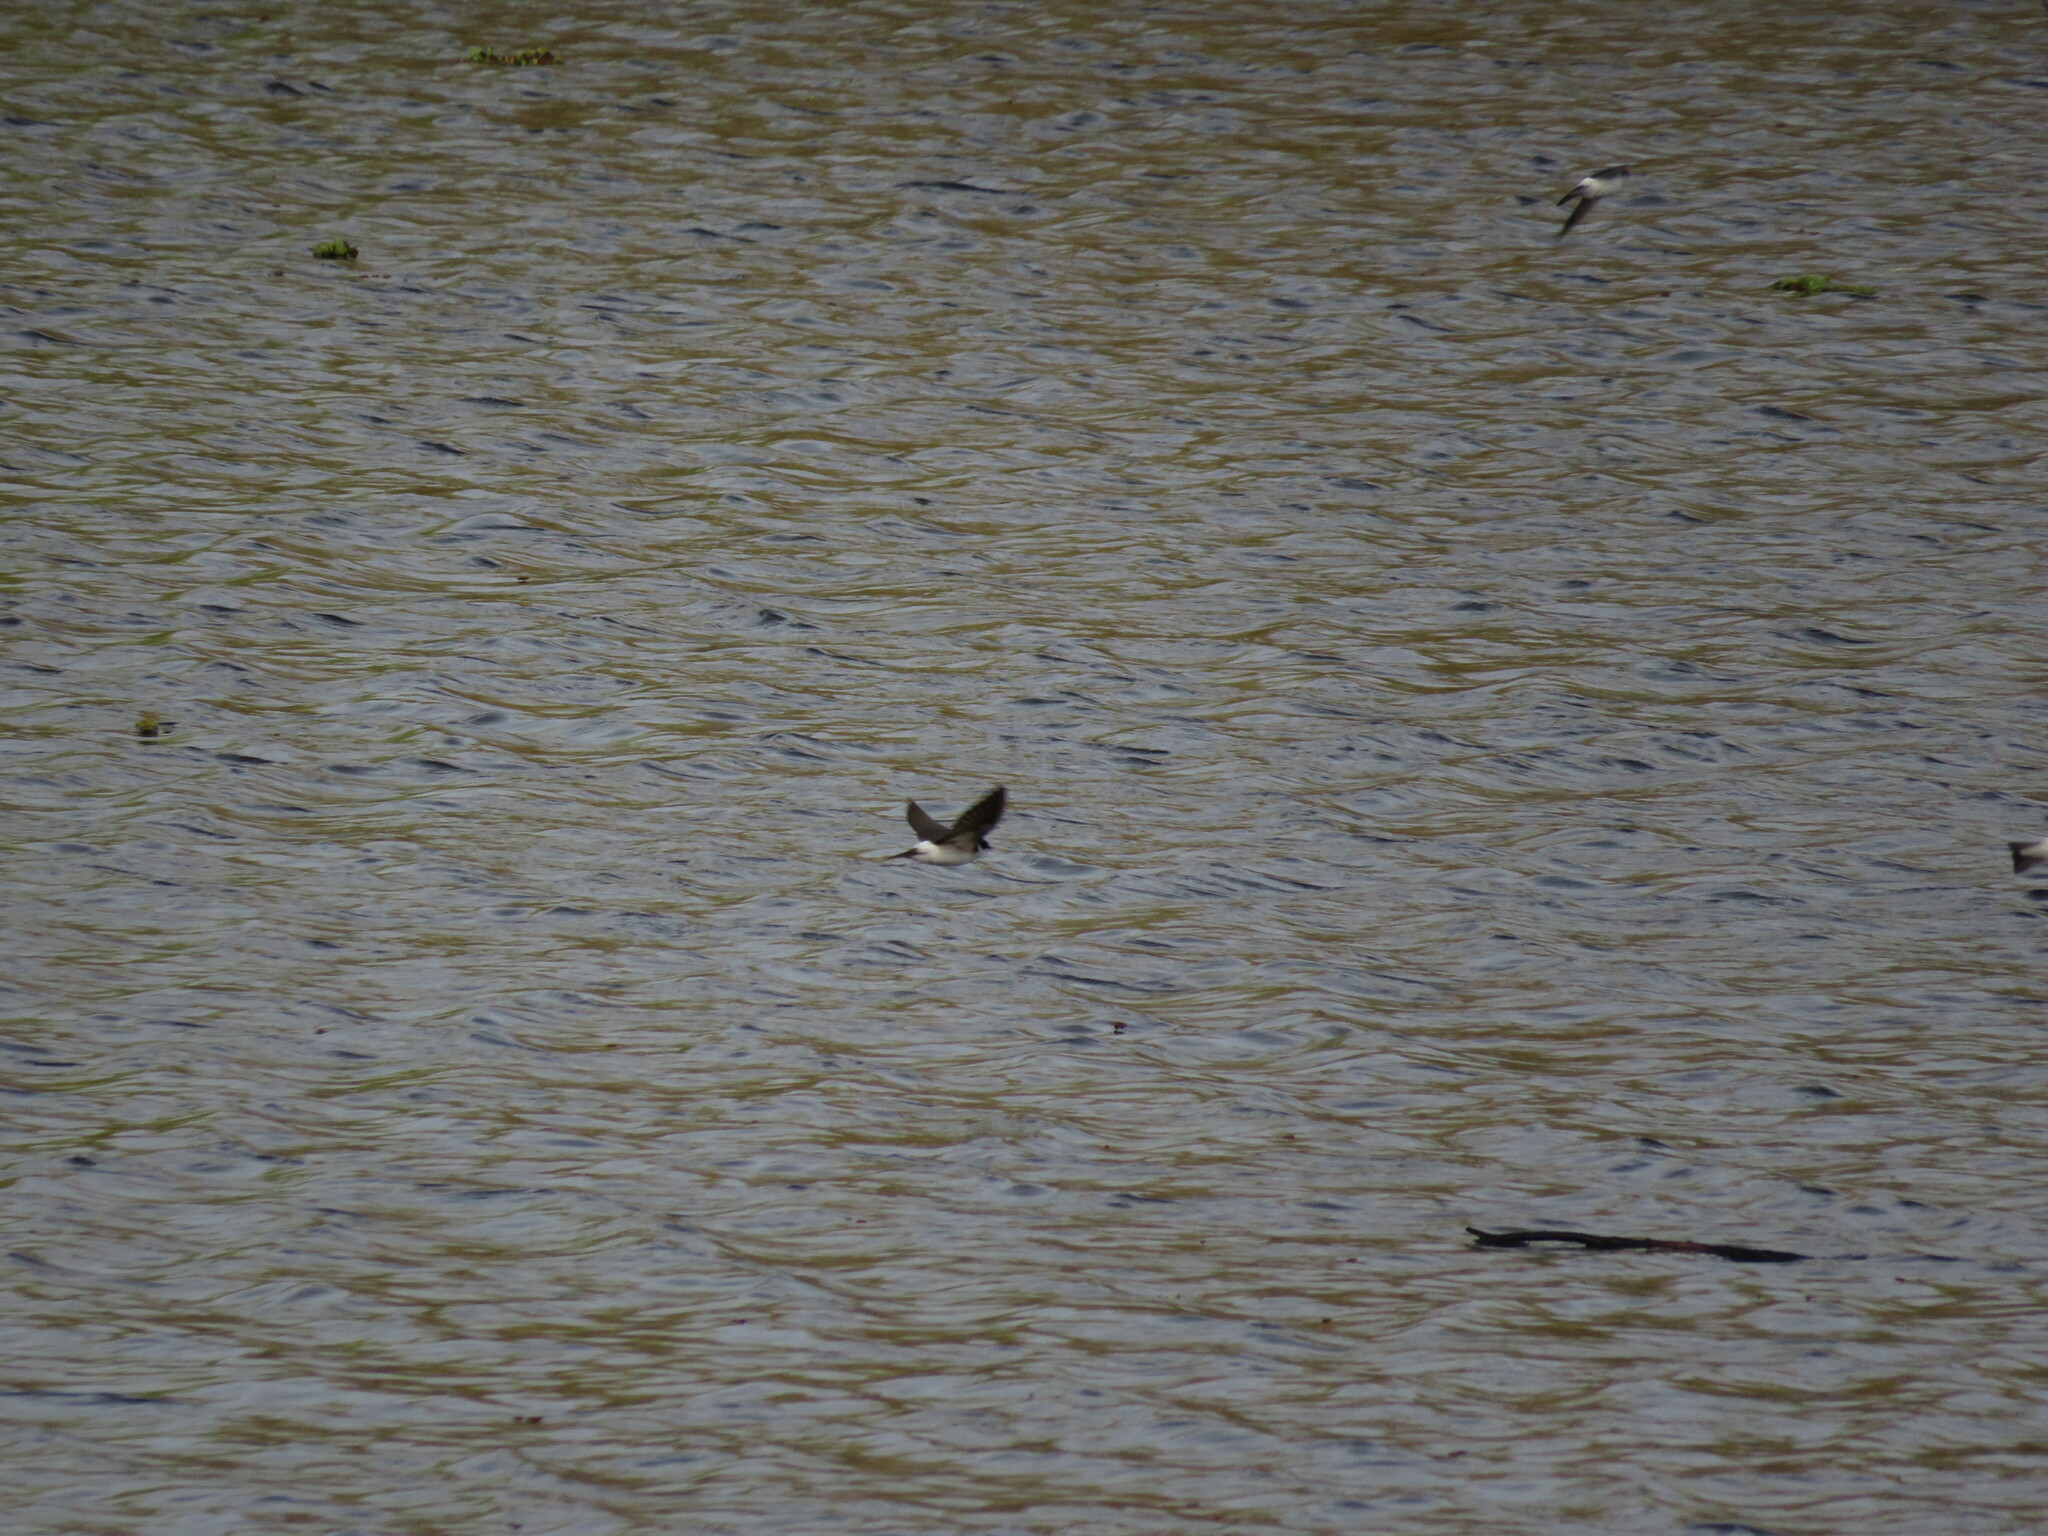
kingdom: Animalia
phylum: Chordata
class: Aves
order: Passeriformes
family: Hirundinidae
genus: Tachycineta
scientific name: Tachycineta leucopyga
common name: Chilean swallow
